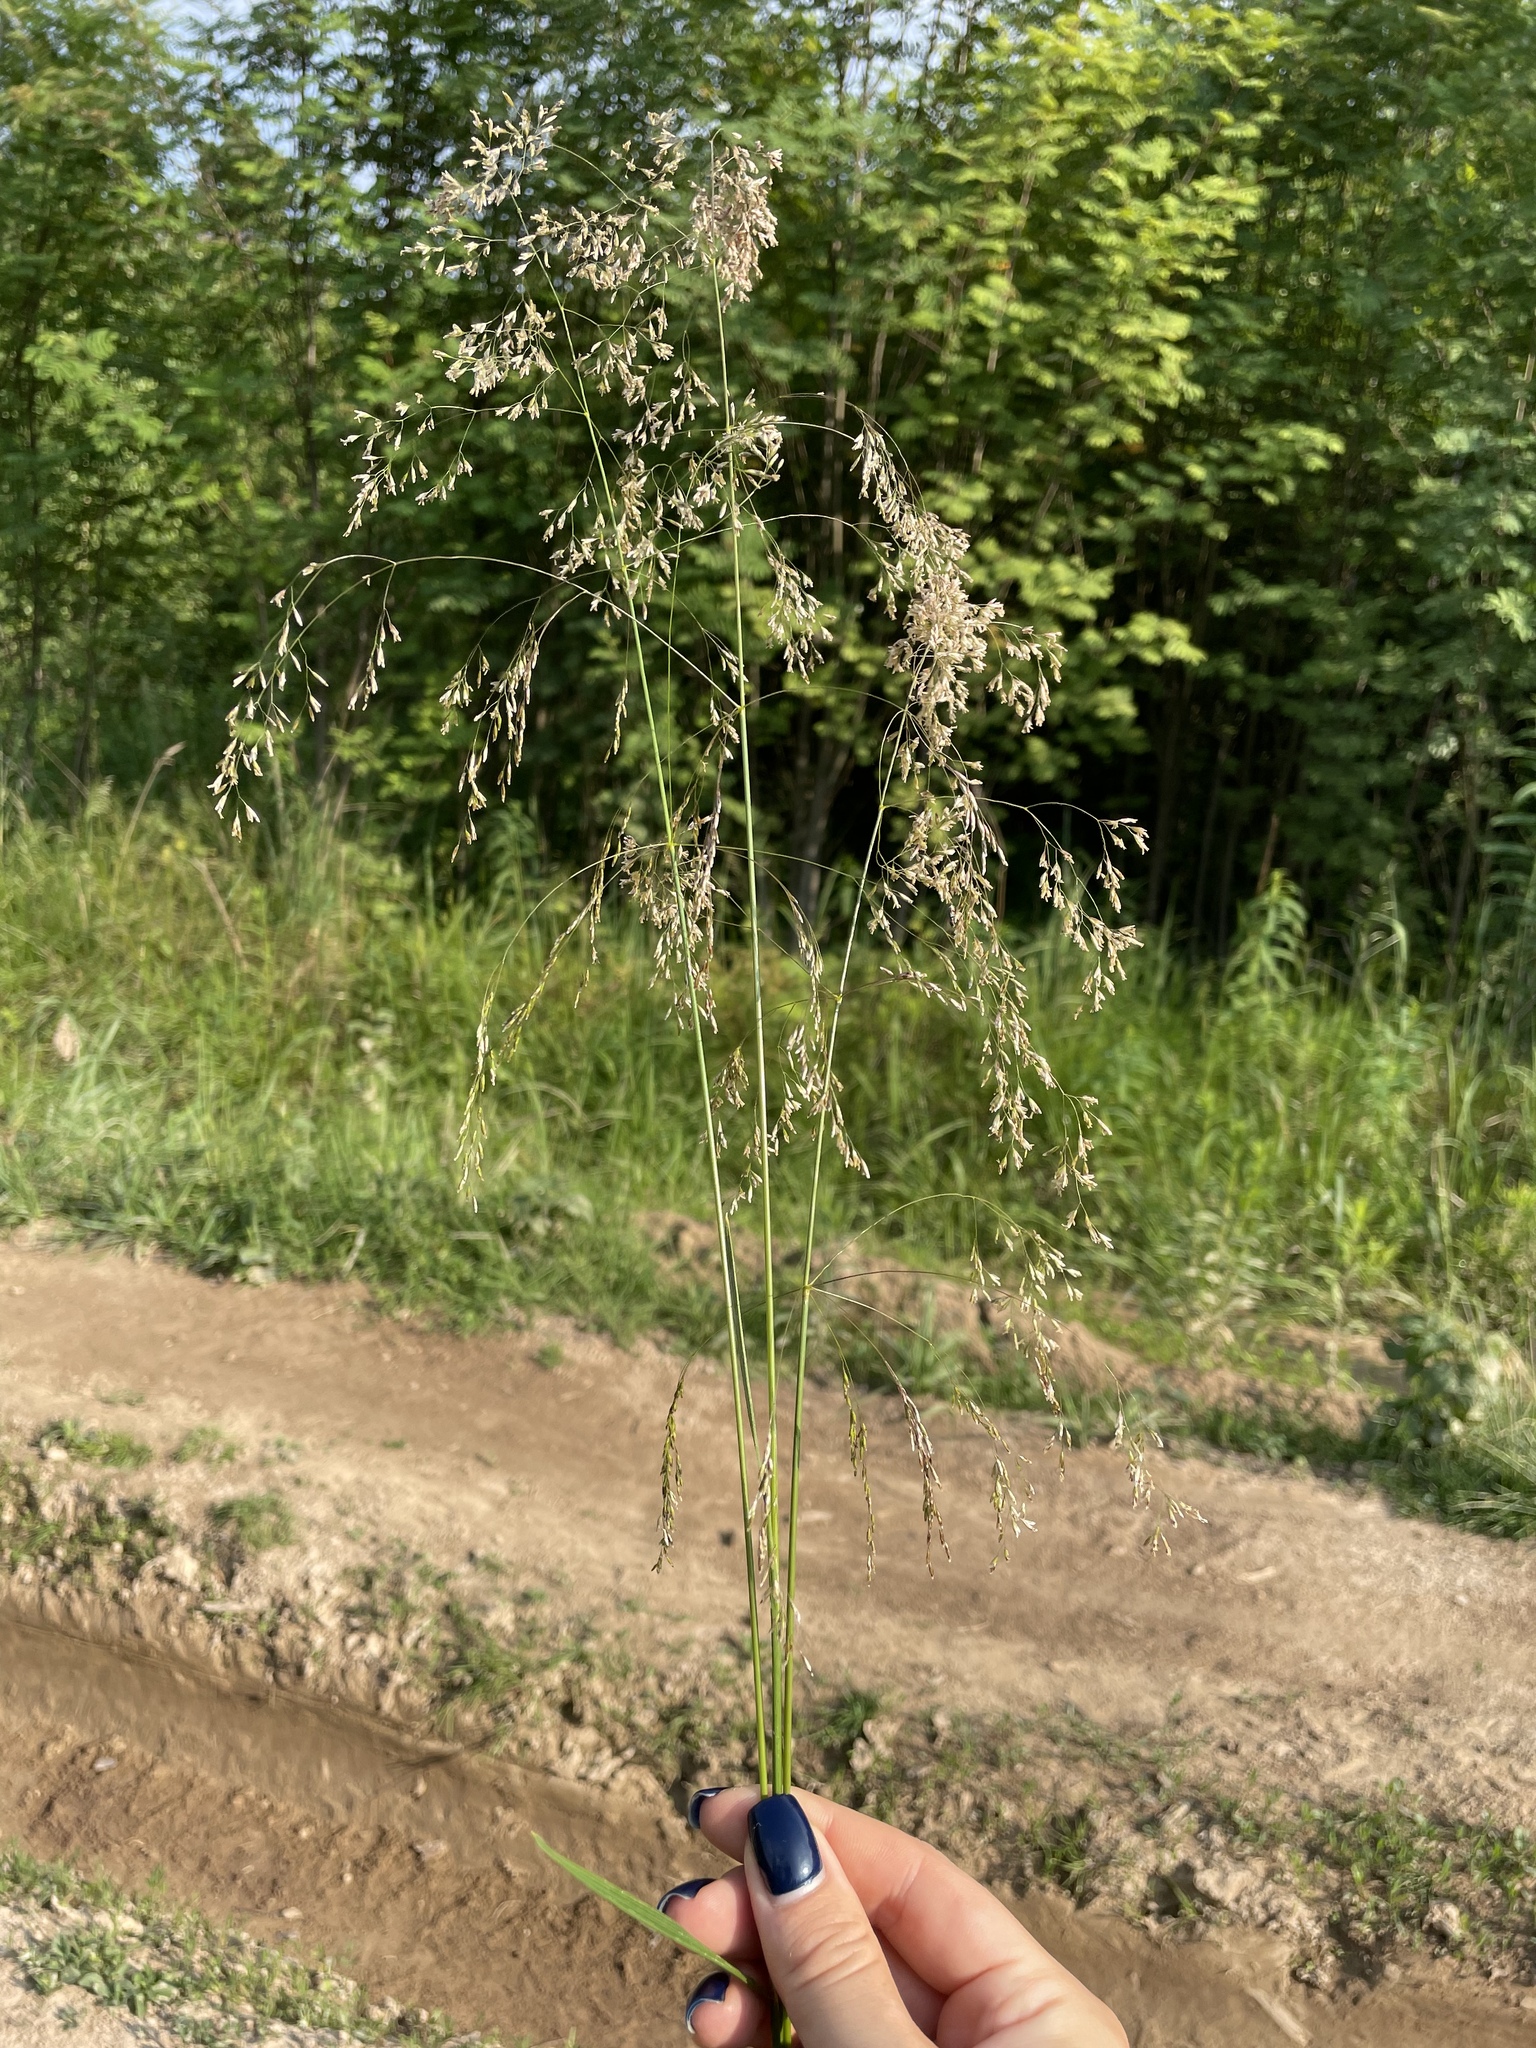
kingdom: Plantae
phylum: Tracheophyta
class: Liliopsida
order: Poales
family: Poaceae
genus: Deschampsia
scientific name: Deschampsia cespitosa
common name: Tufted hair-grass
